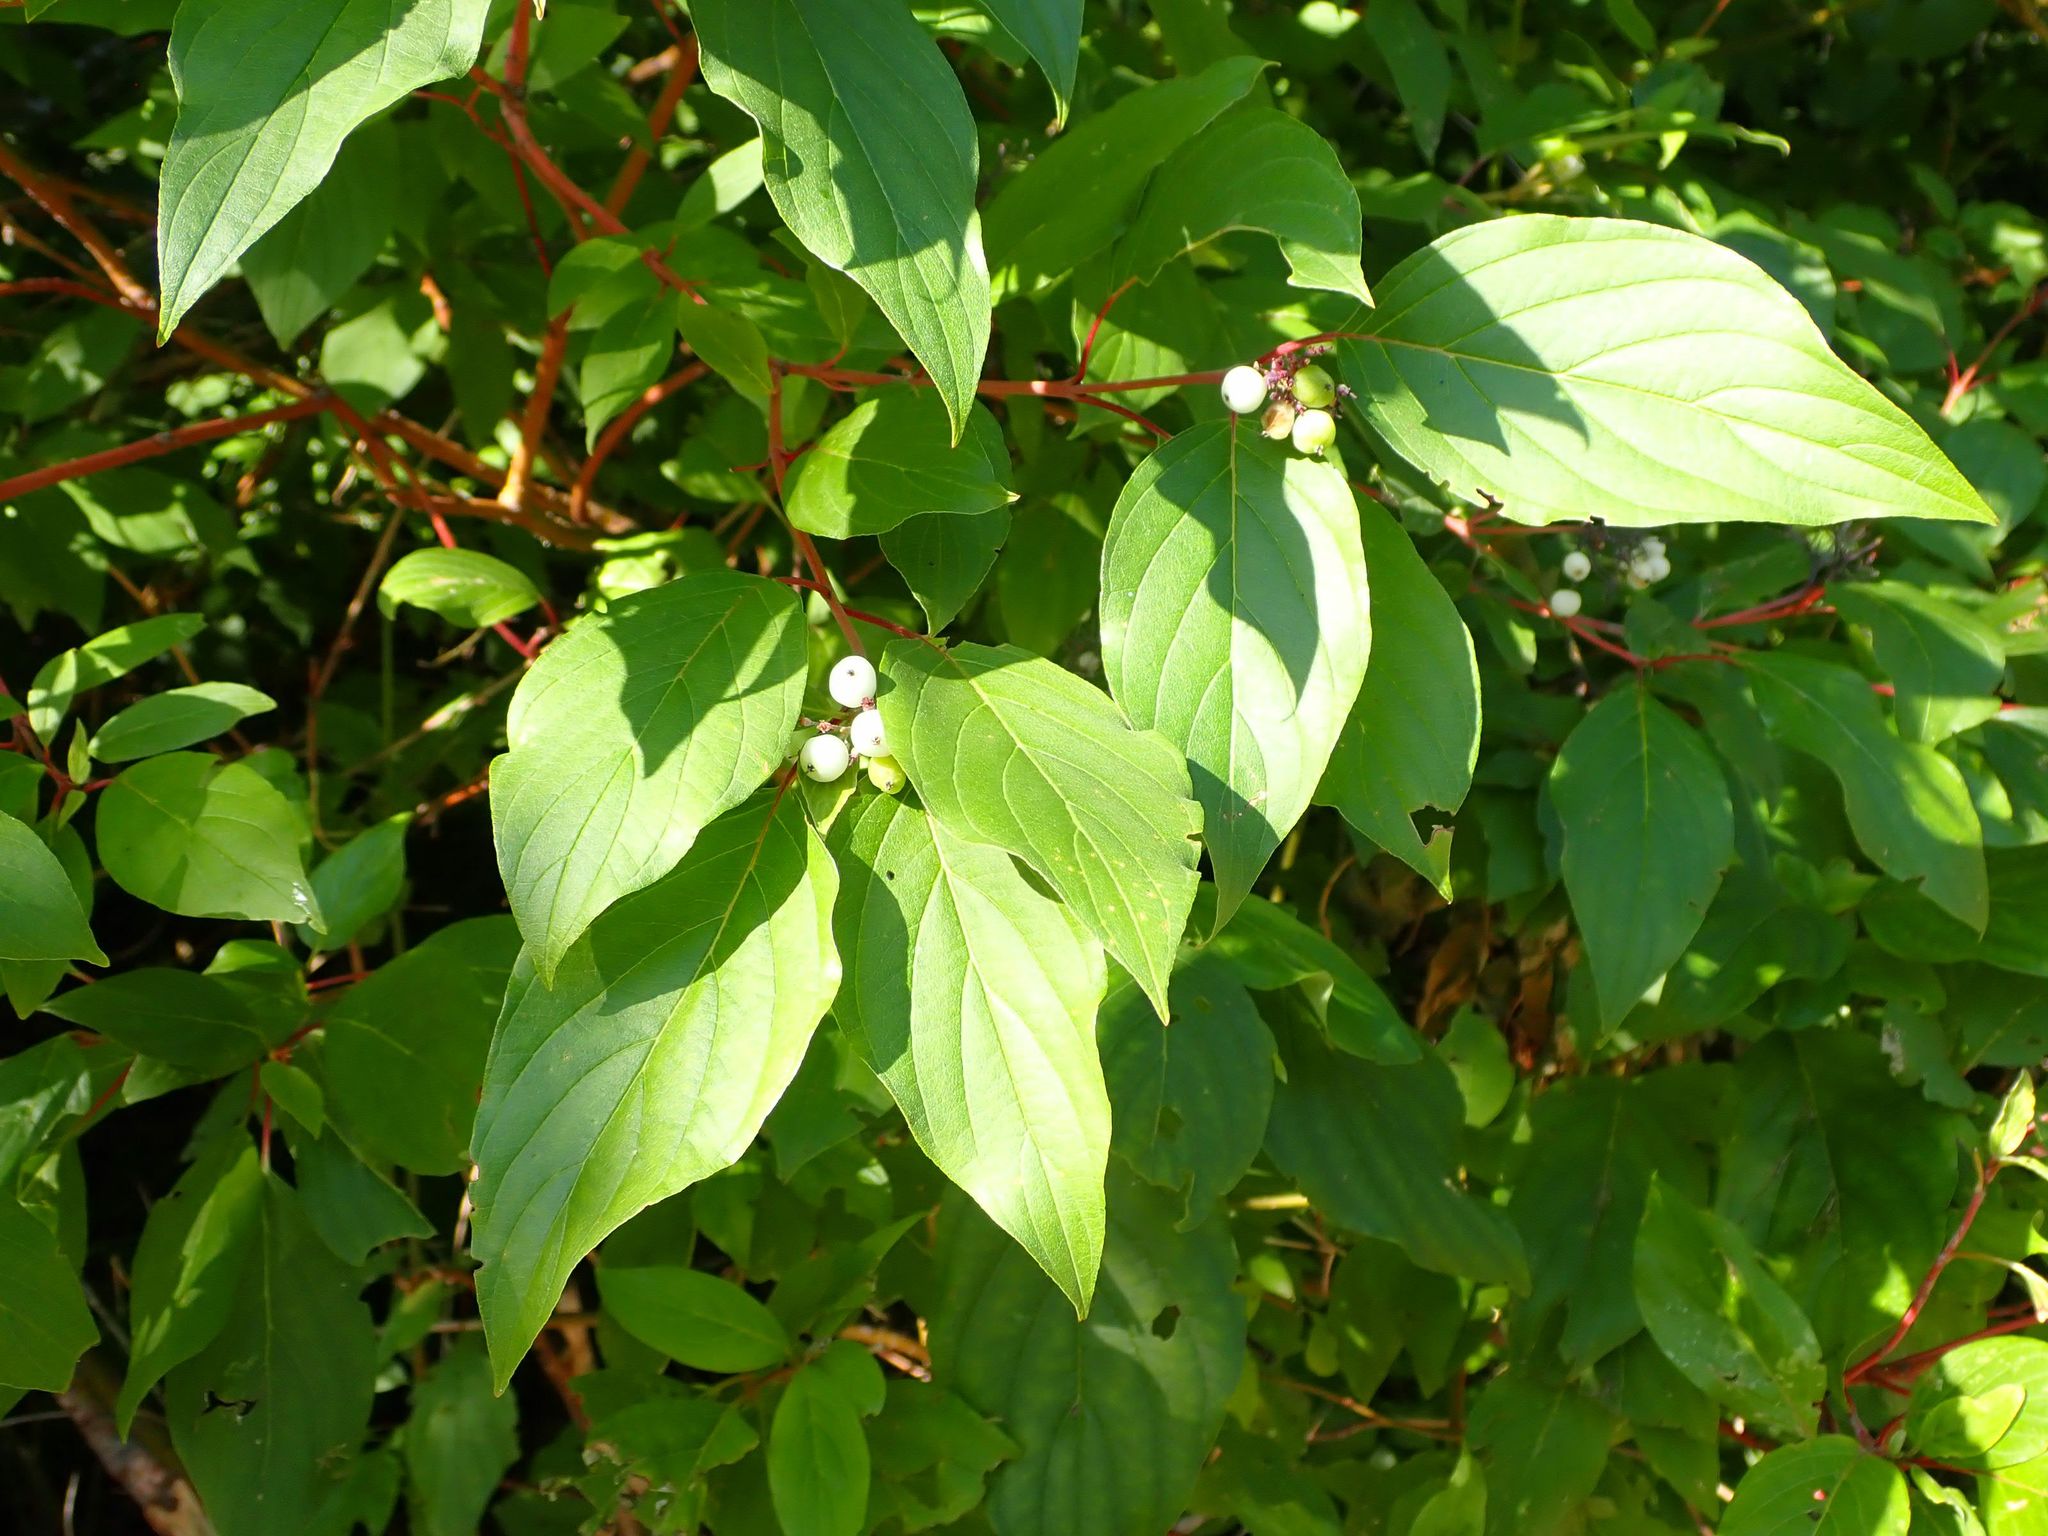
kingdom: Plantae
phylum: Tracheophyta
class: Magnoliopsida
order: Cornales
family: Cornaceae
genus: Cornus
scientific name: Cornus sericea
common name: Red-osier dogwood
